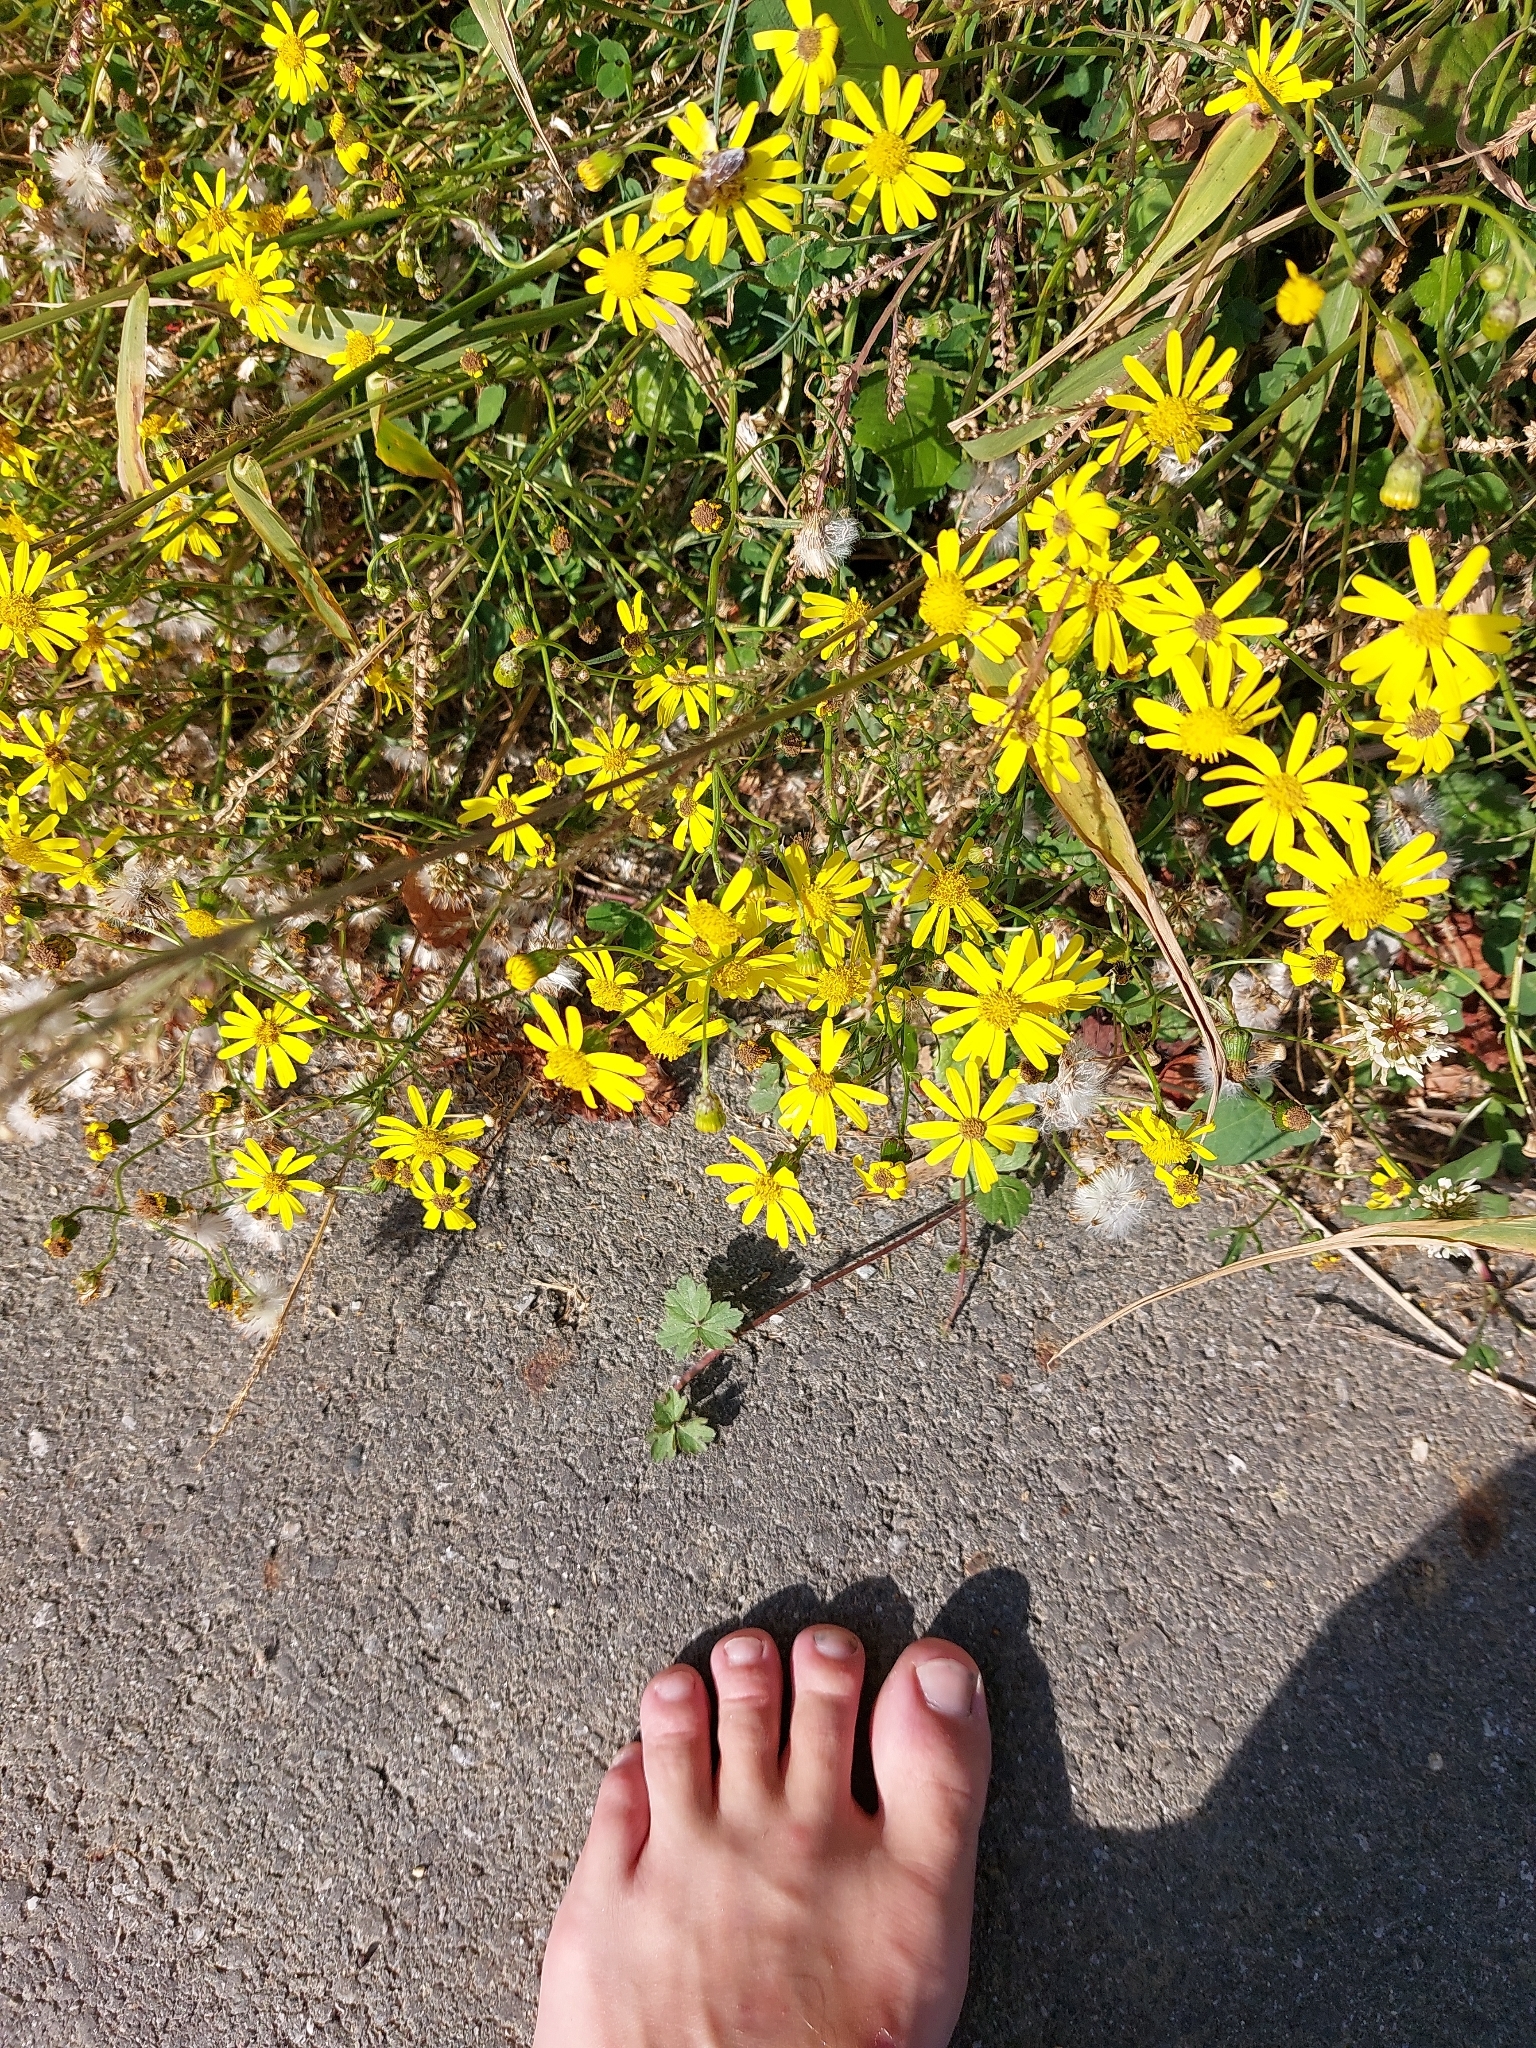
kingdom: Plantae
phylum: Tracheophyta
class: Magnoliopsida
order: Asterales
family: Asteraceae
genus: Senecio
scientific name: Senecio inaequidens
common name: Narrow-leaved ragwort
